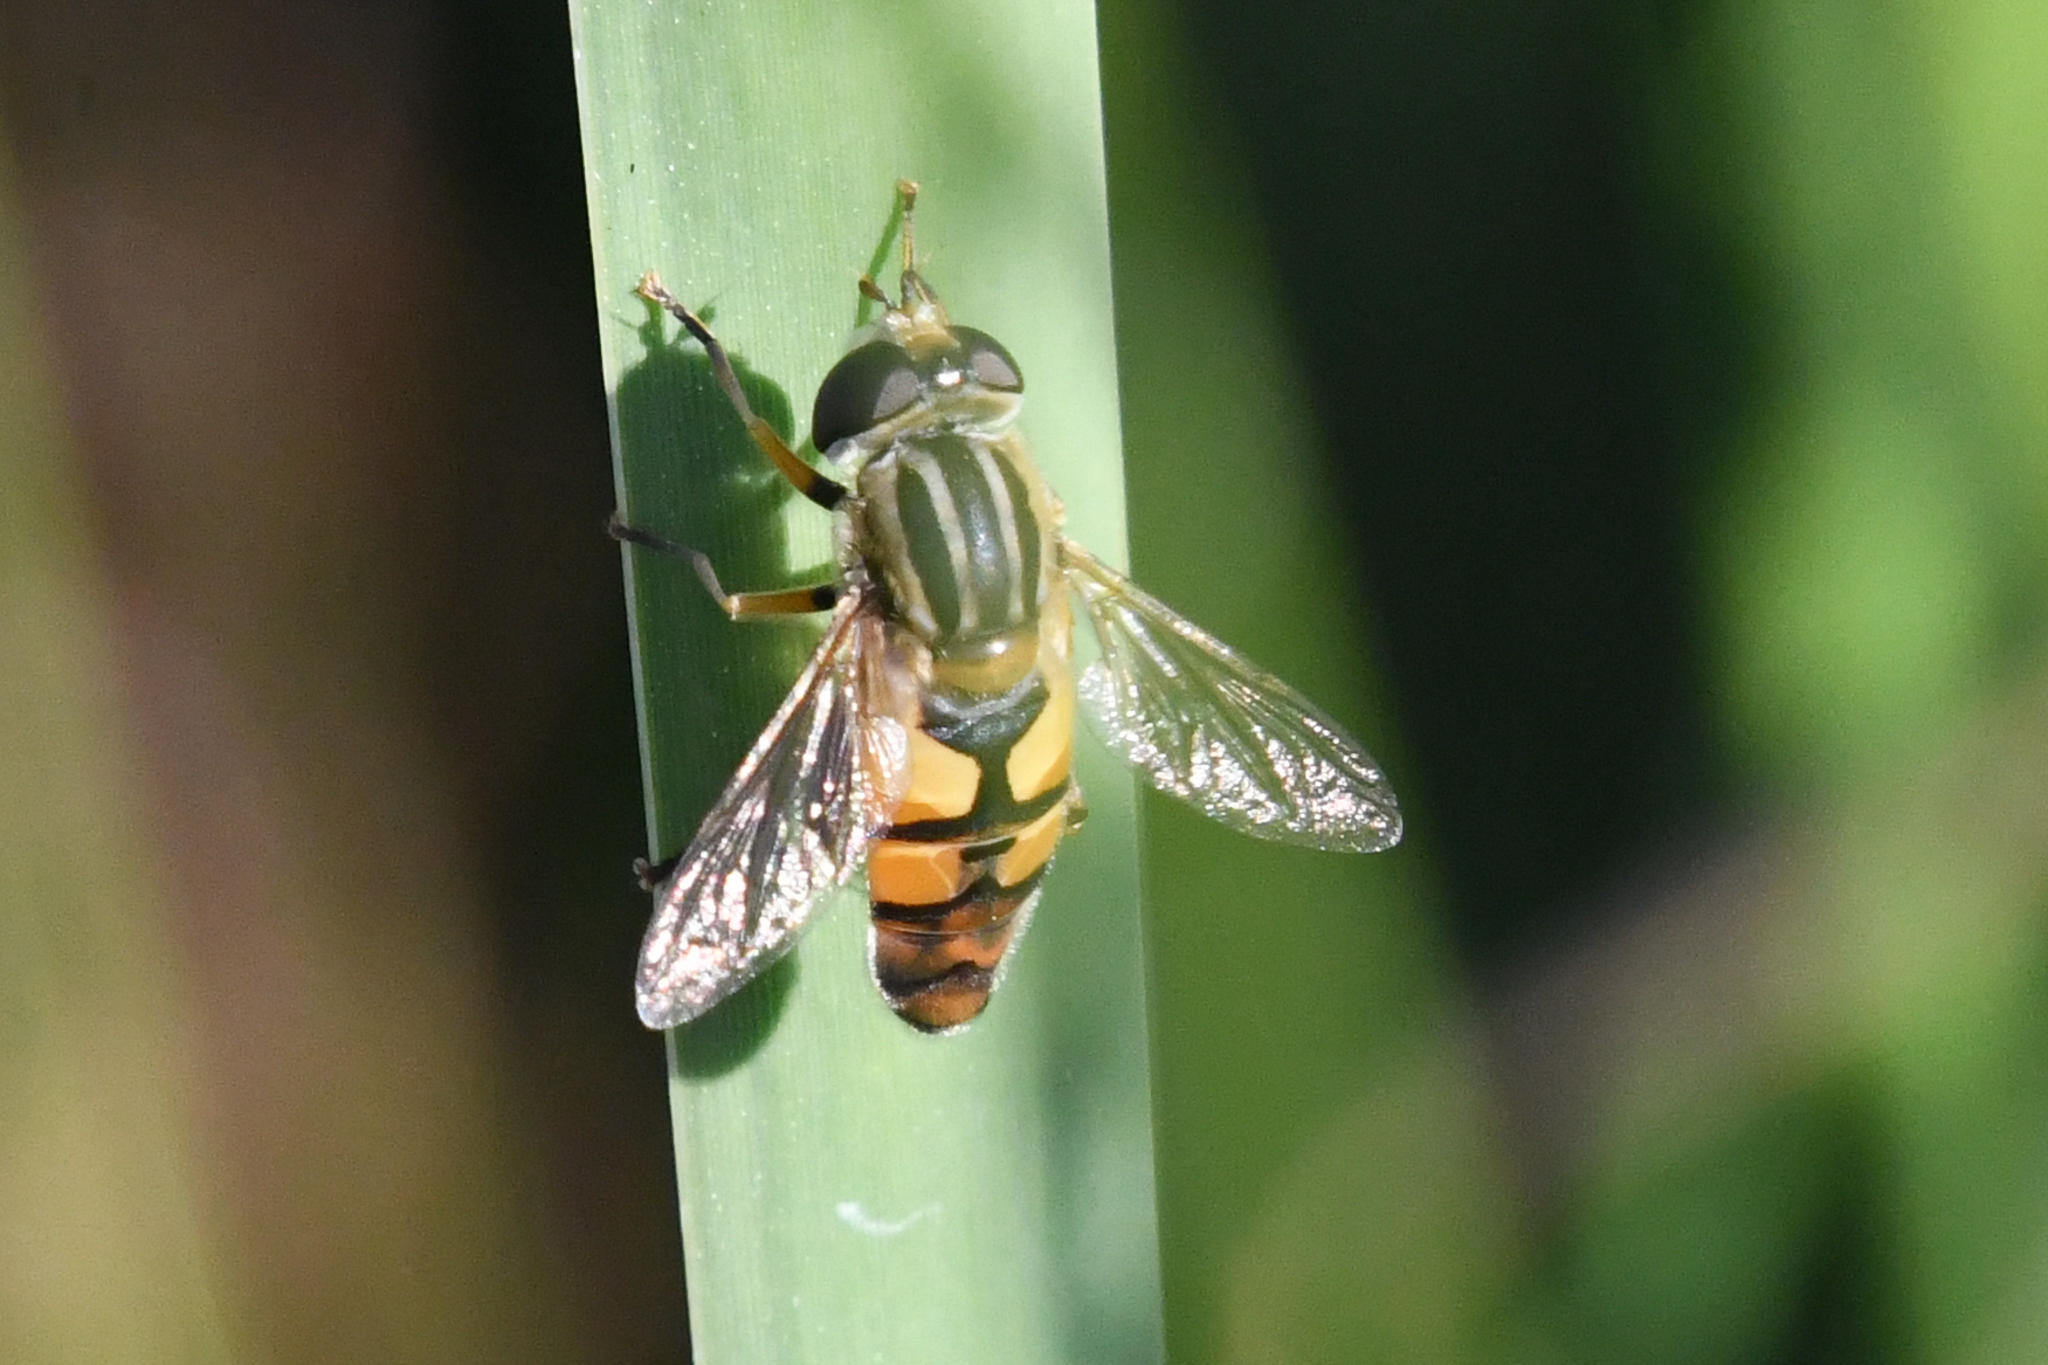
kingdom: Animalia
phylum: Arthropoda
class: Insecta
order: Diptera
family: Syrphidae
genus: Helophilus
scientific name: Helophilus latifrons
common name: Broad-headed marsh fly
